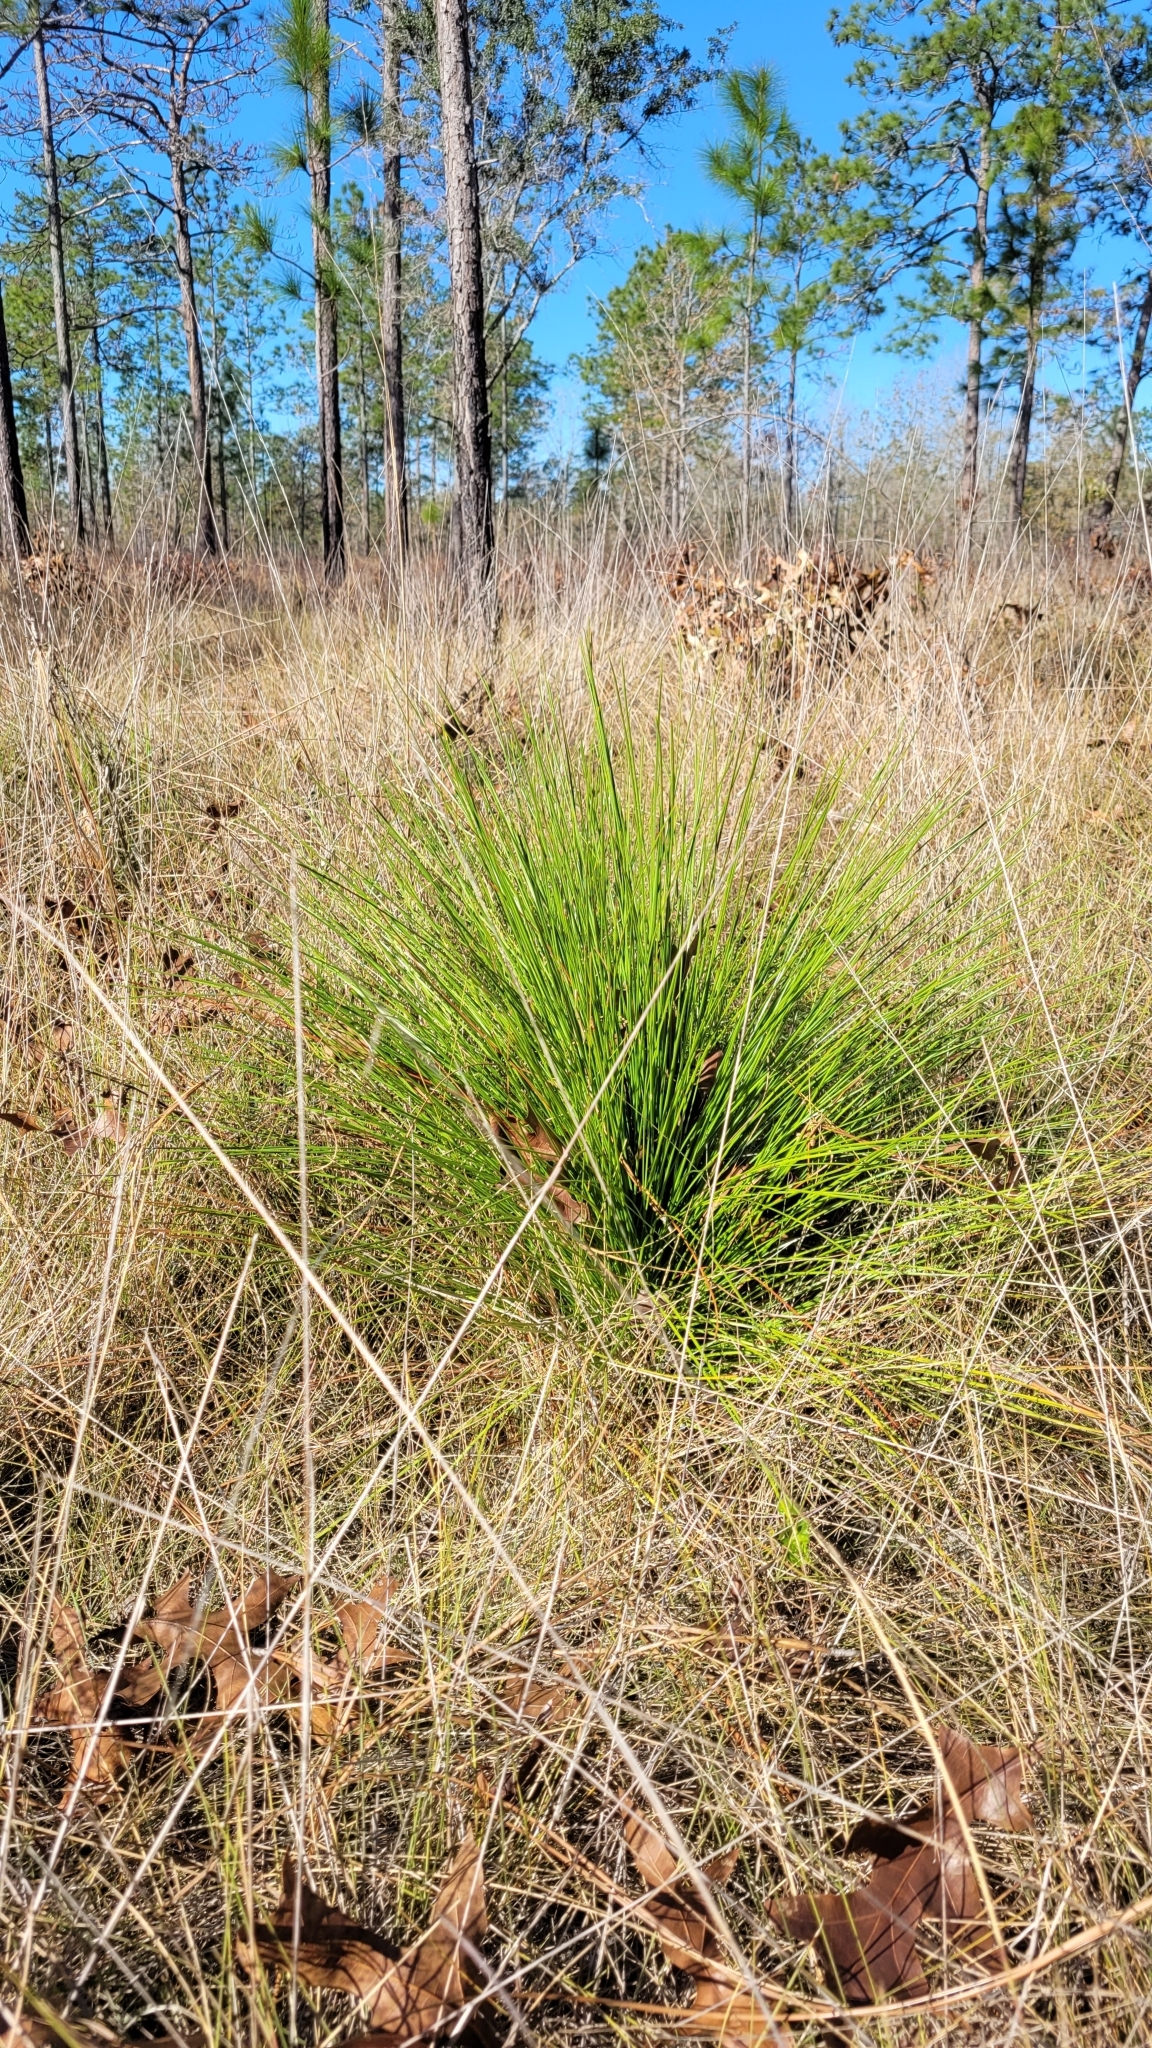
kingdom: Plantae
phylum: Tracheophyta
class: Pinopsida
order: Pinales
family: Pinaceae
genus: Pinus
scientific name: Pinus palustris
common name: Longleaf pine
